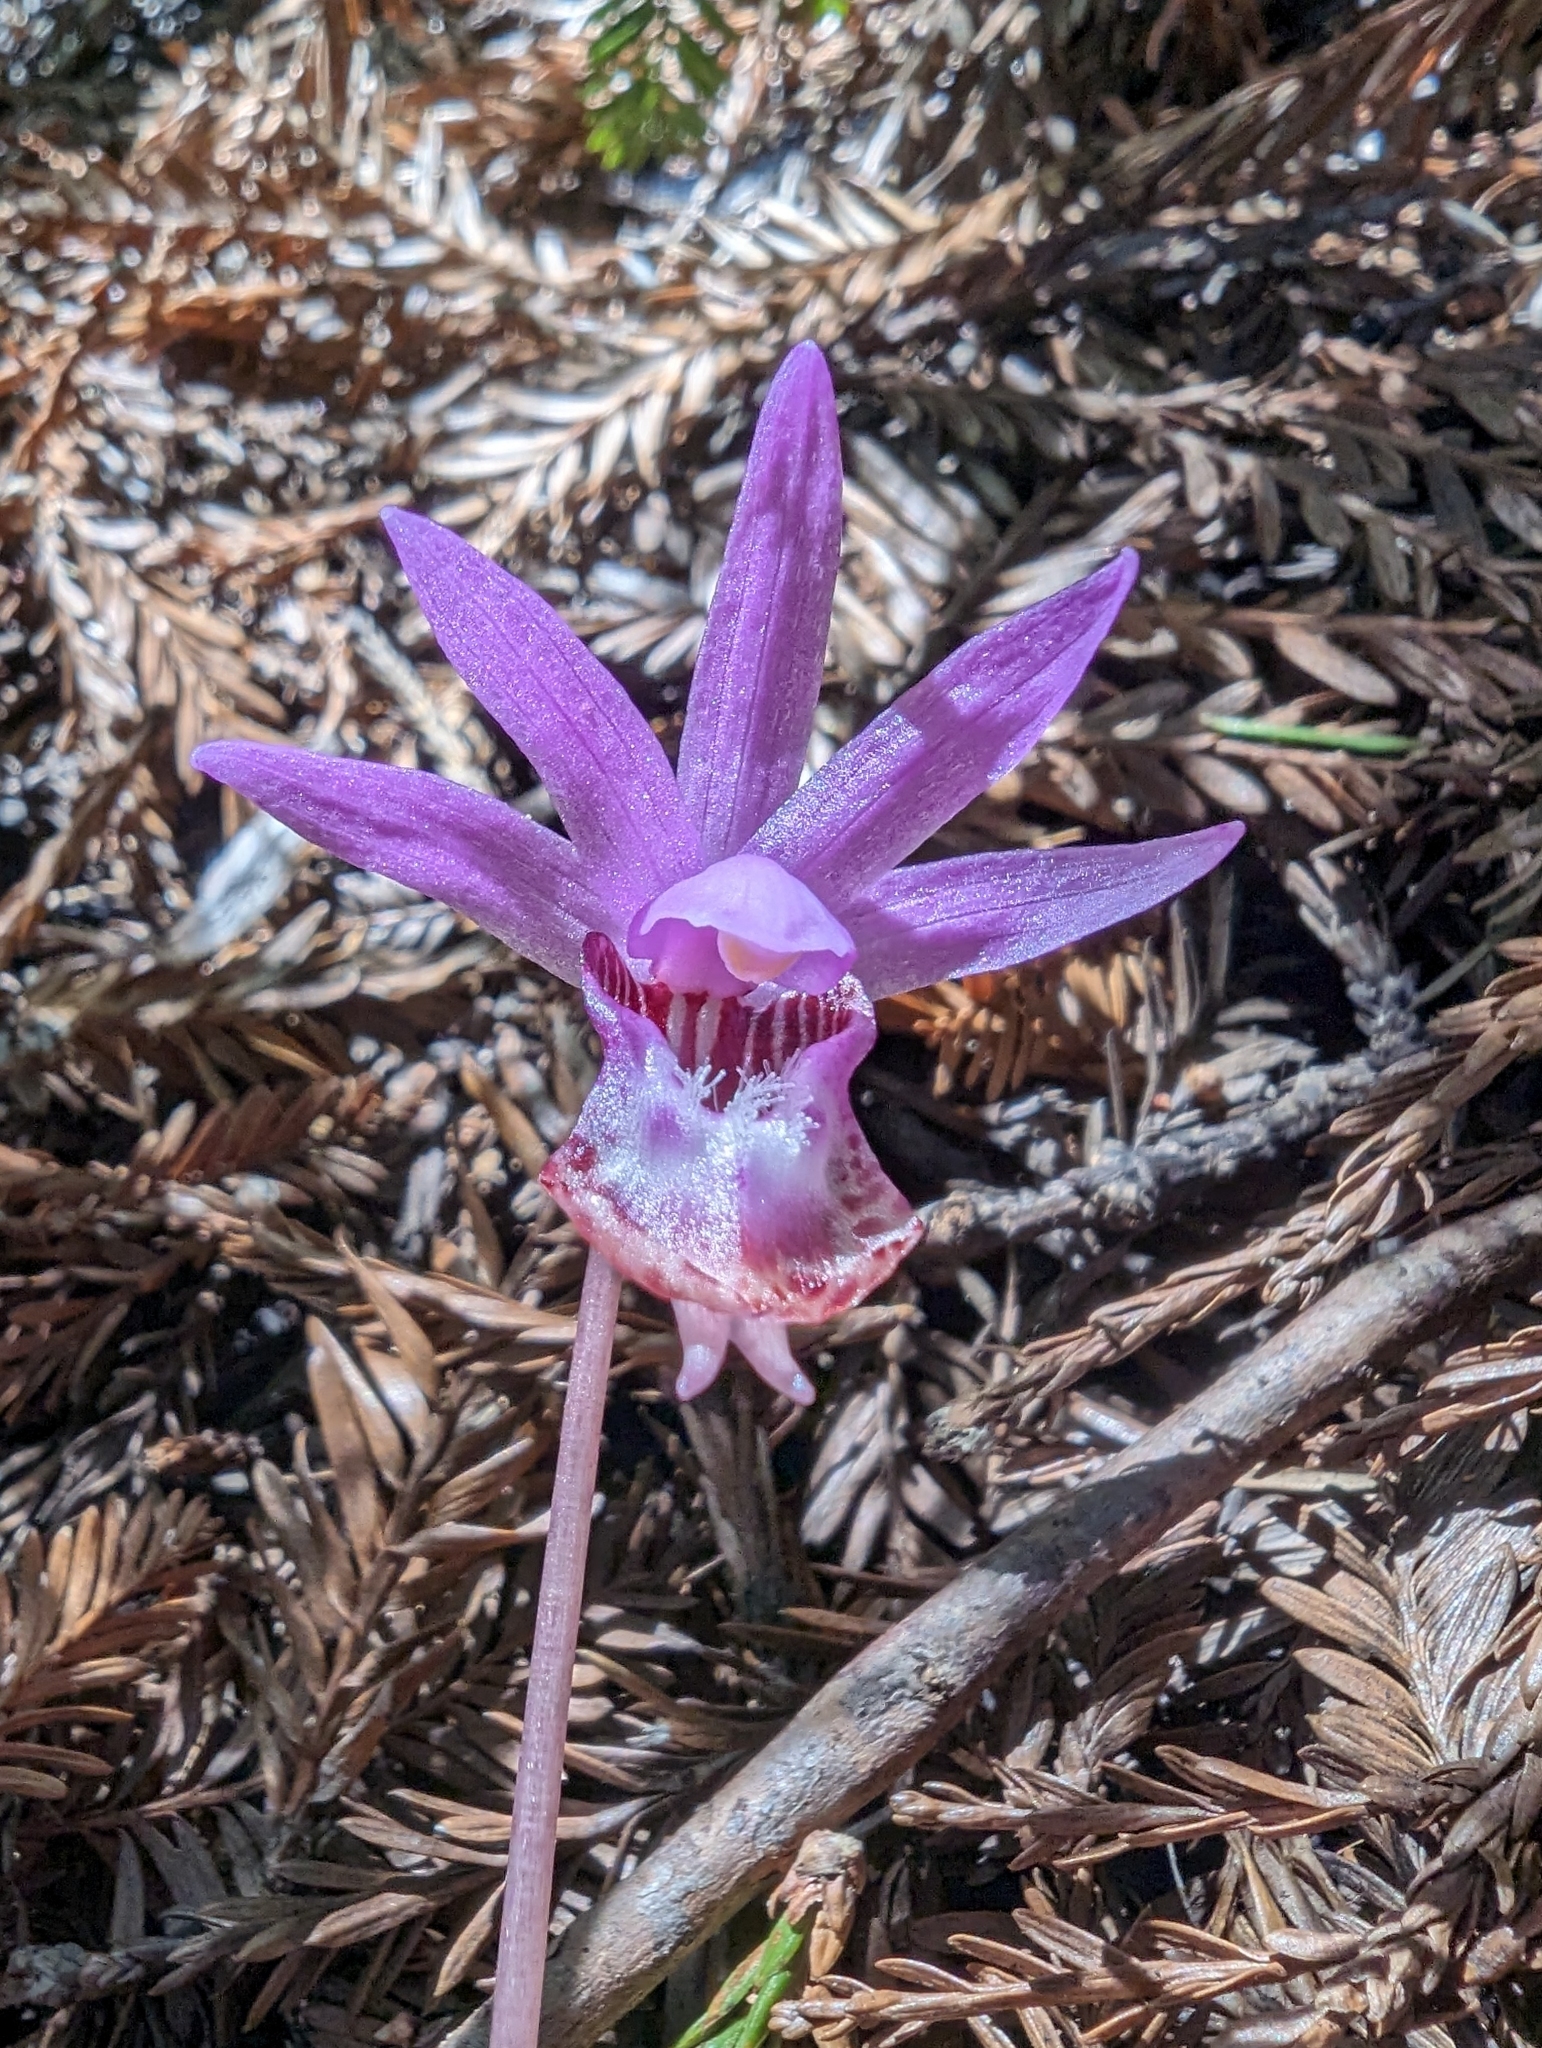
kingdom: Plantae
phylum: Tracheophyta
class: Liliopsida
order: Asparagales
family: Orchidaceae
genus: Calypso
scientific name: Calypso bulbosa
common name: Calypso
